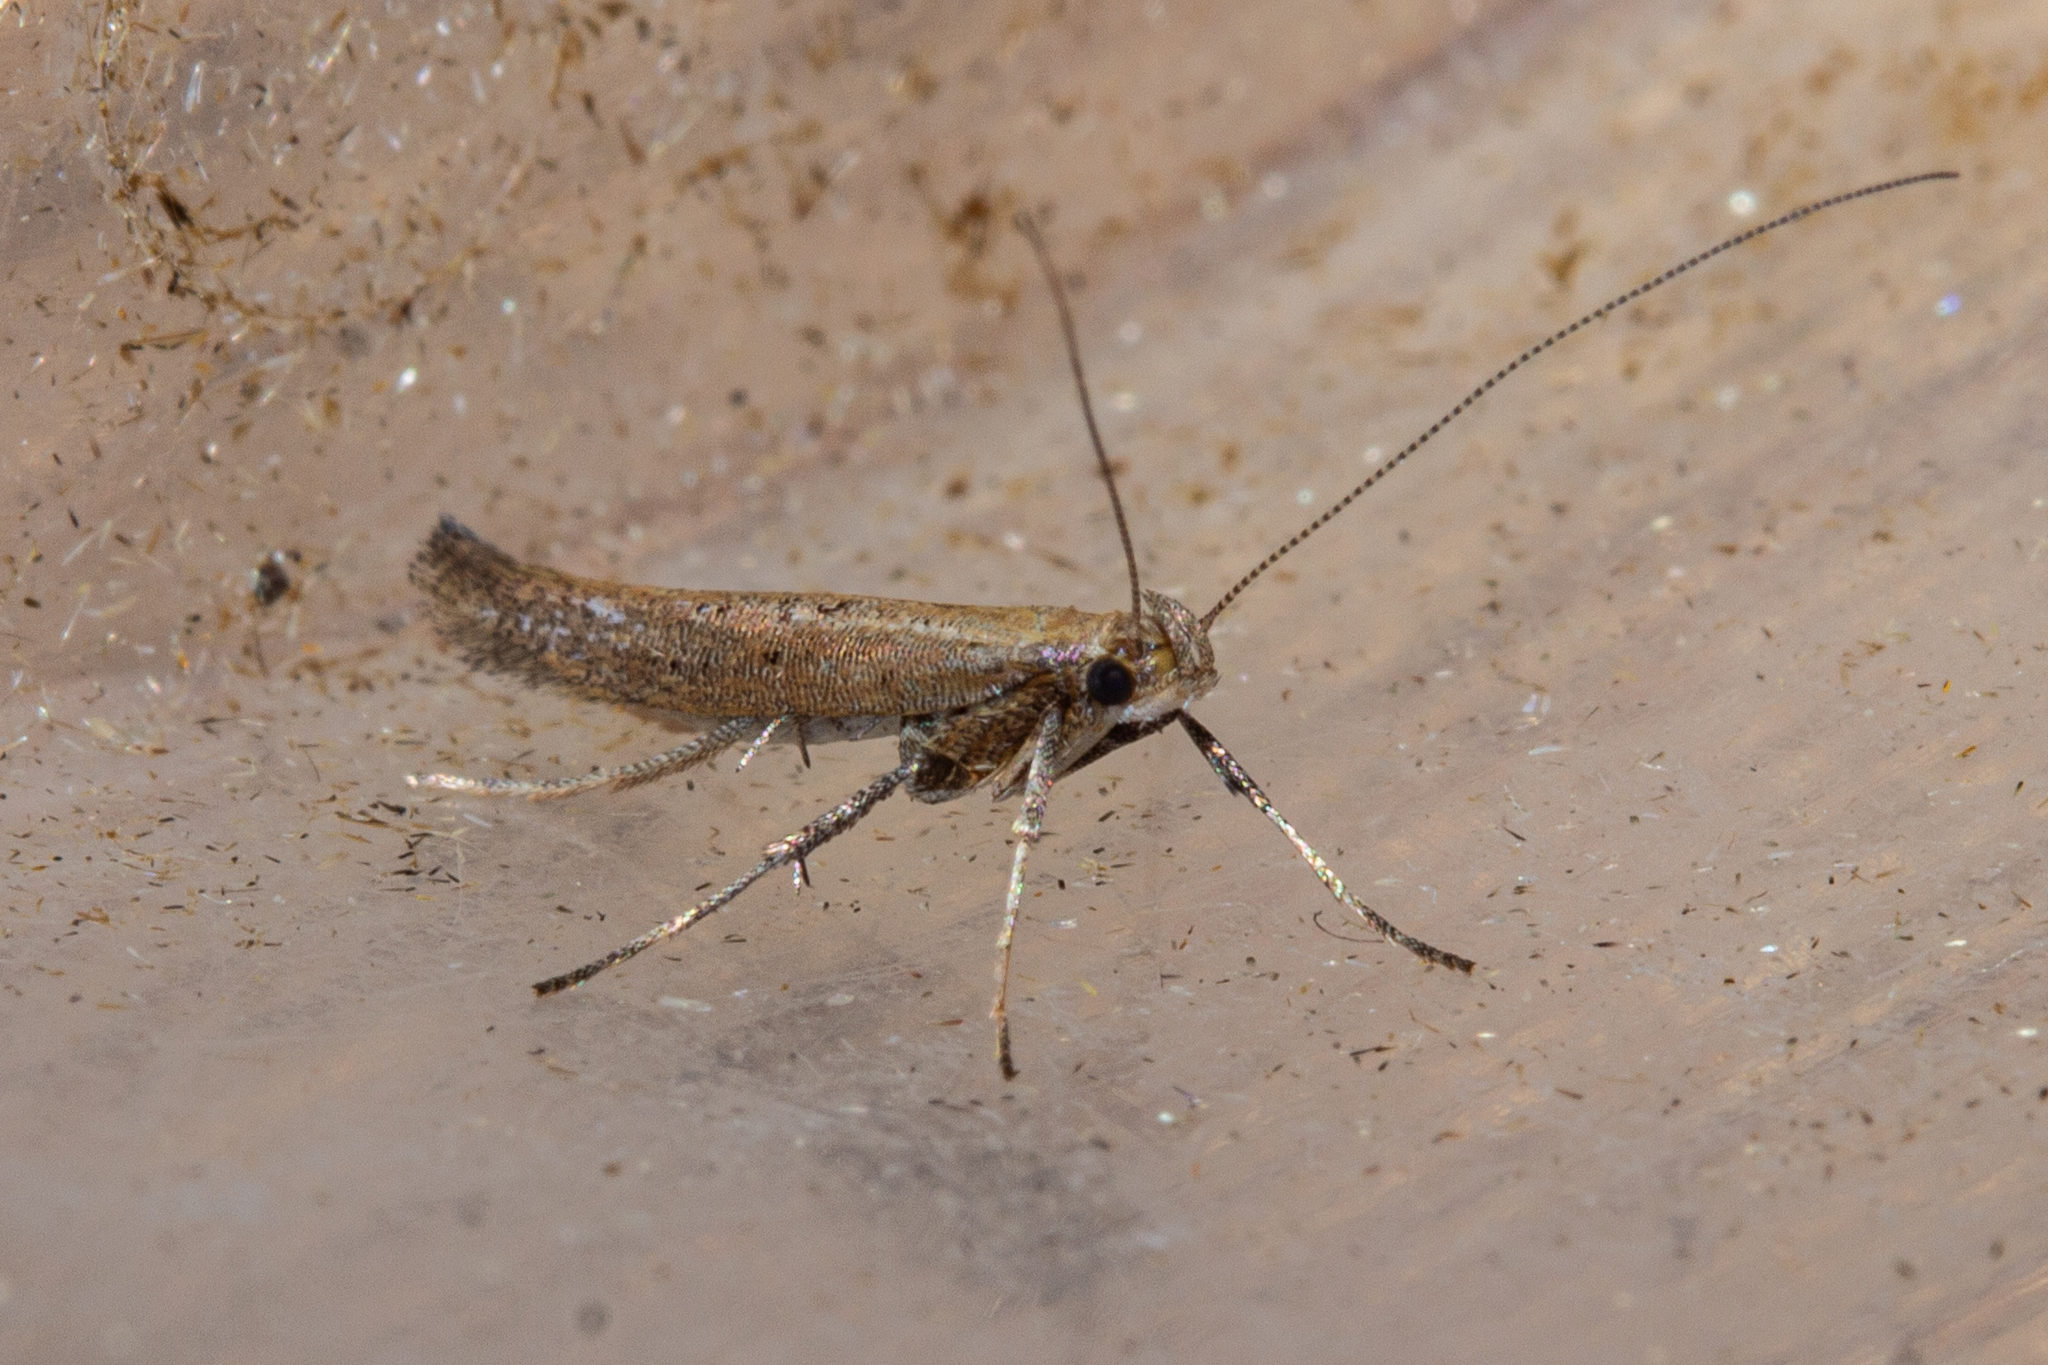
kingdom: Animalia
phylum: Arthropoda
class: Insecta
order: Lepidoptera
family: Gracillariidae
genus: Caloptilia
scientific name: Caloptilia elaeas
